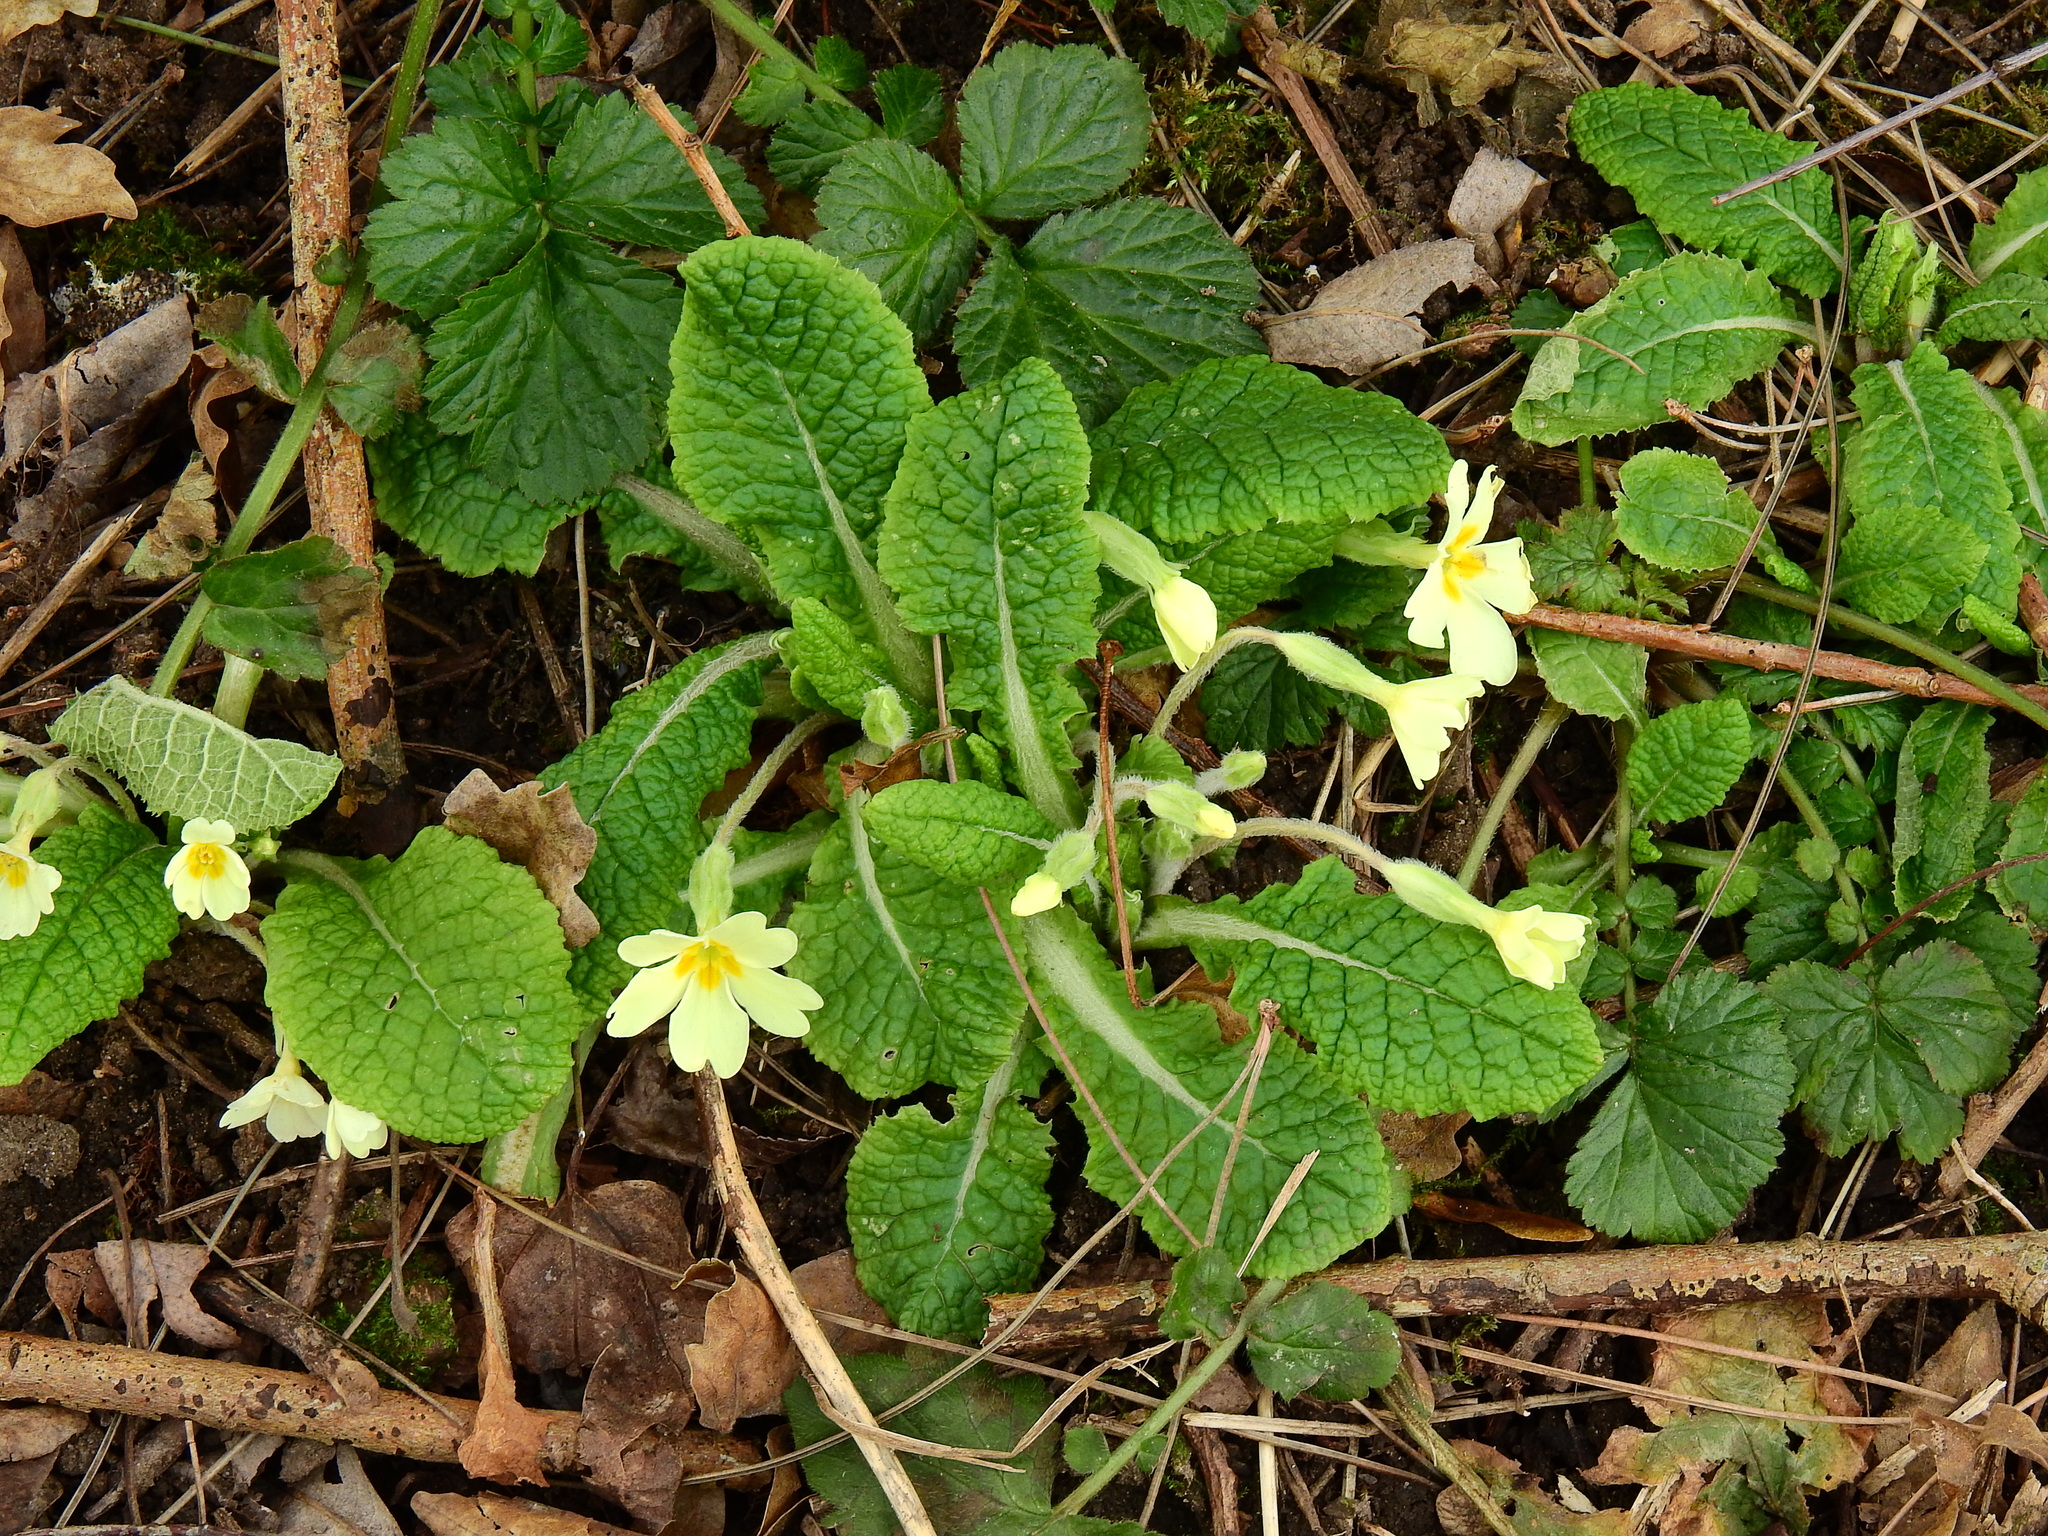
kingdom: Plantae
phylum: Tracheophyta
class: Magnoliopsida
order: Ericales
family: Primulaceae
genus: Primula
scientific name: Primula vulgaris
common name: Primrose
